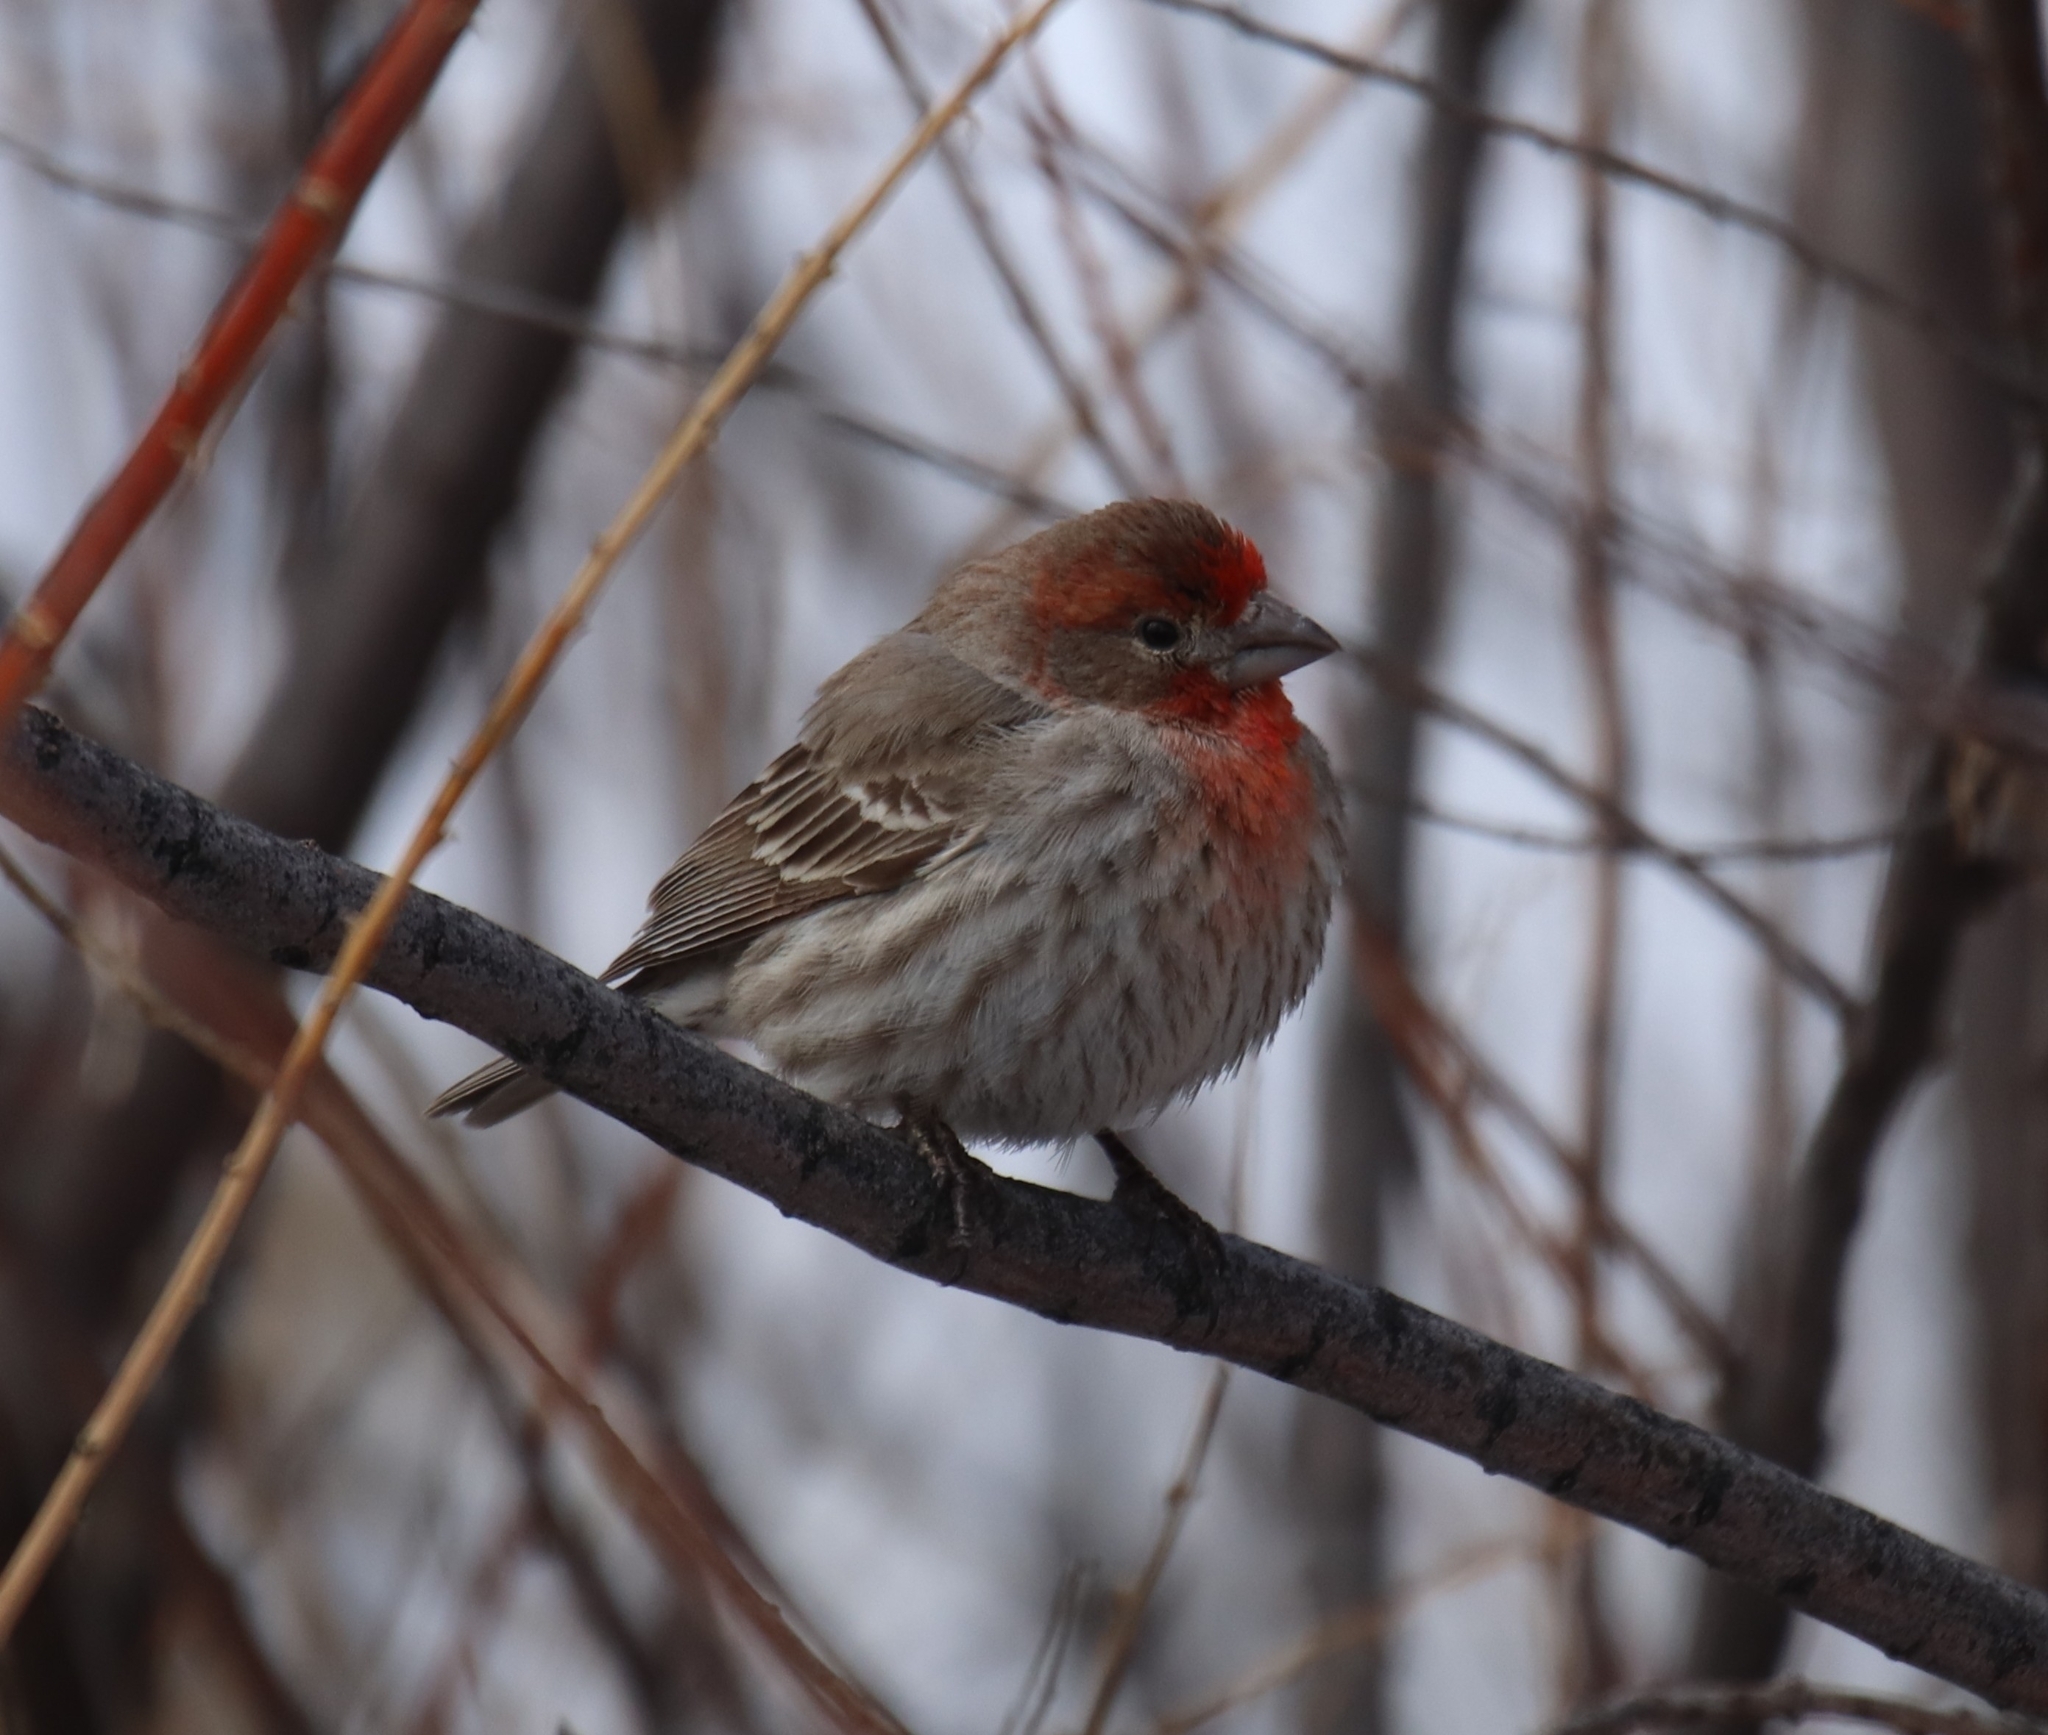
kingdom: Animalia
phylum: Chordata
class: Aves
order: Passeriformes
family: Fringillidae
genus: Haemorhous
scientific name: Haemorhous mexicanus
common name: House finch
